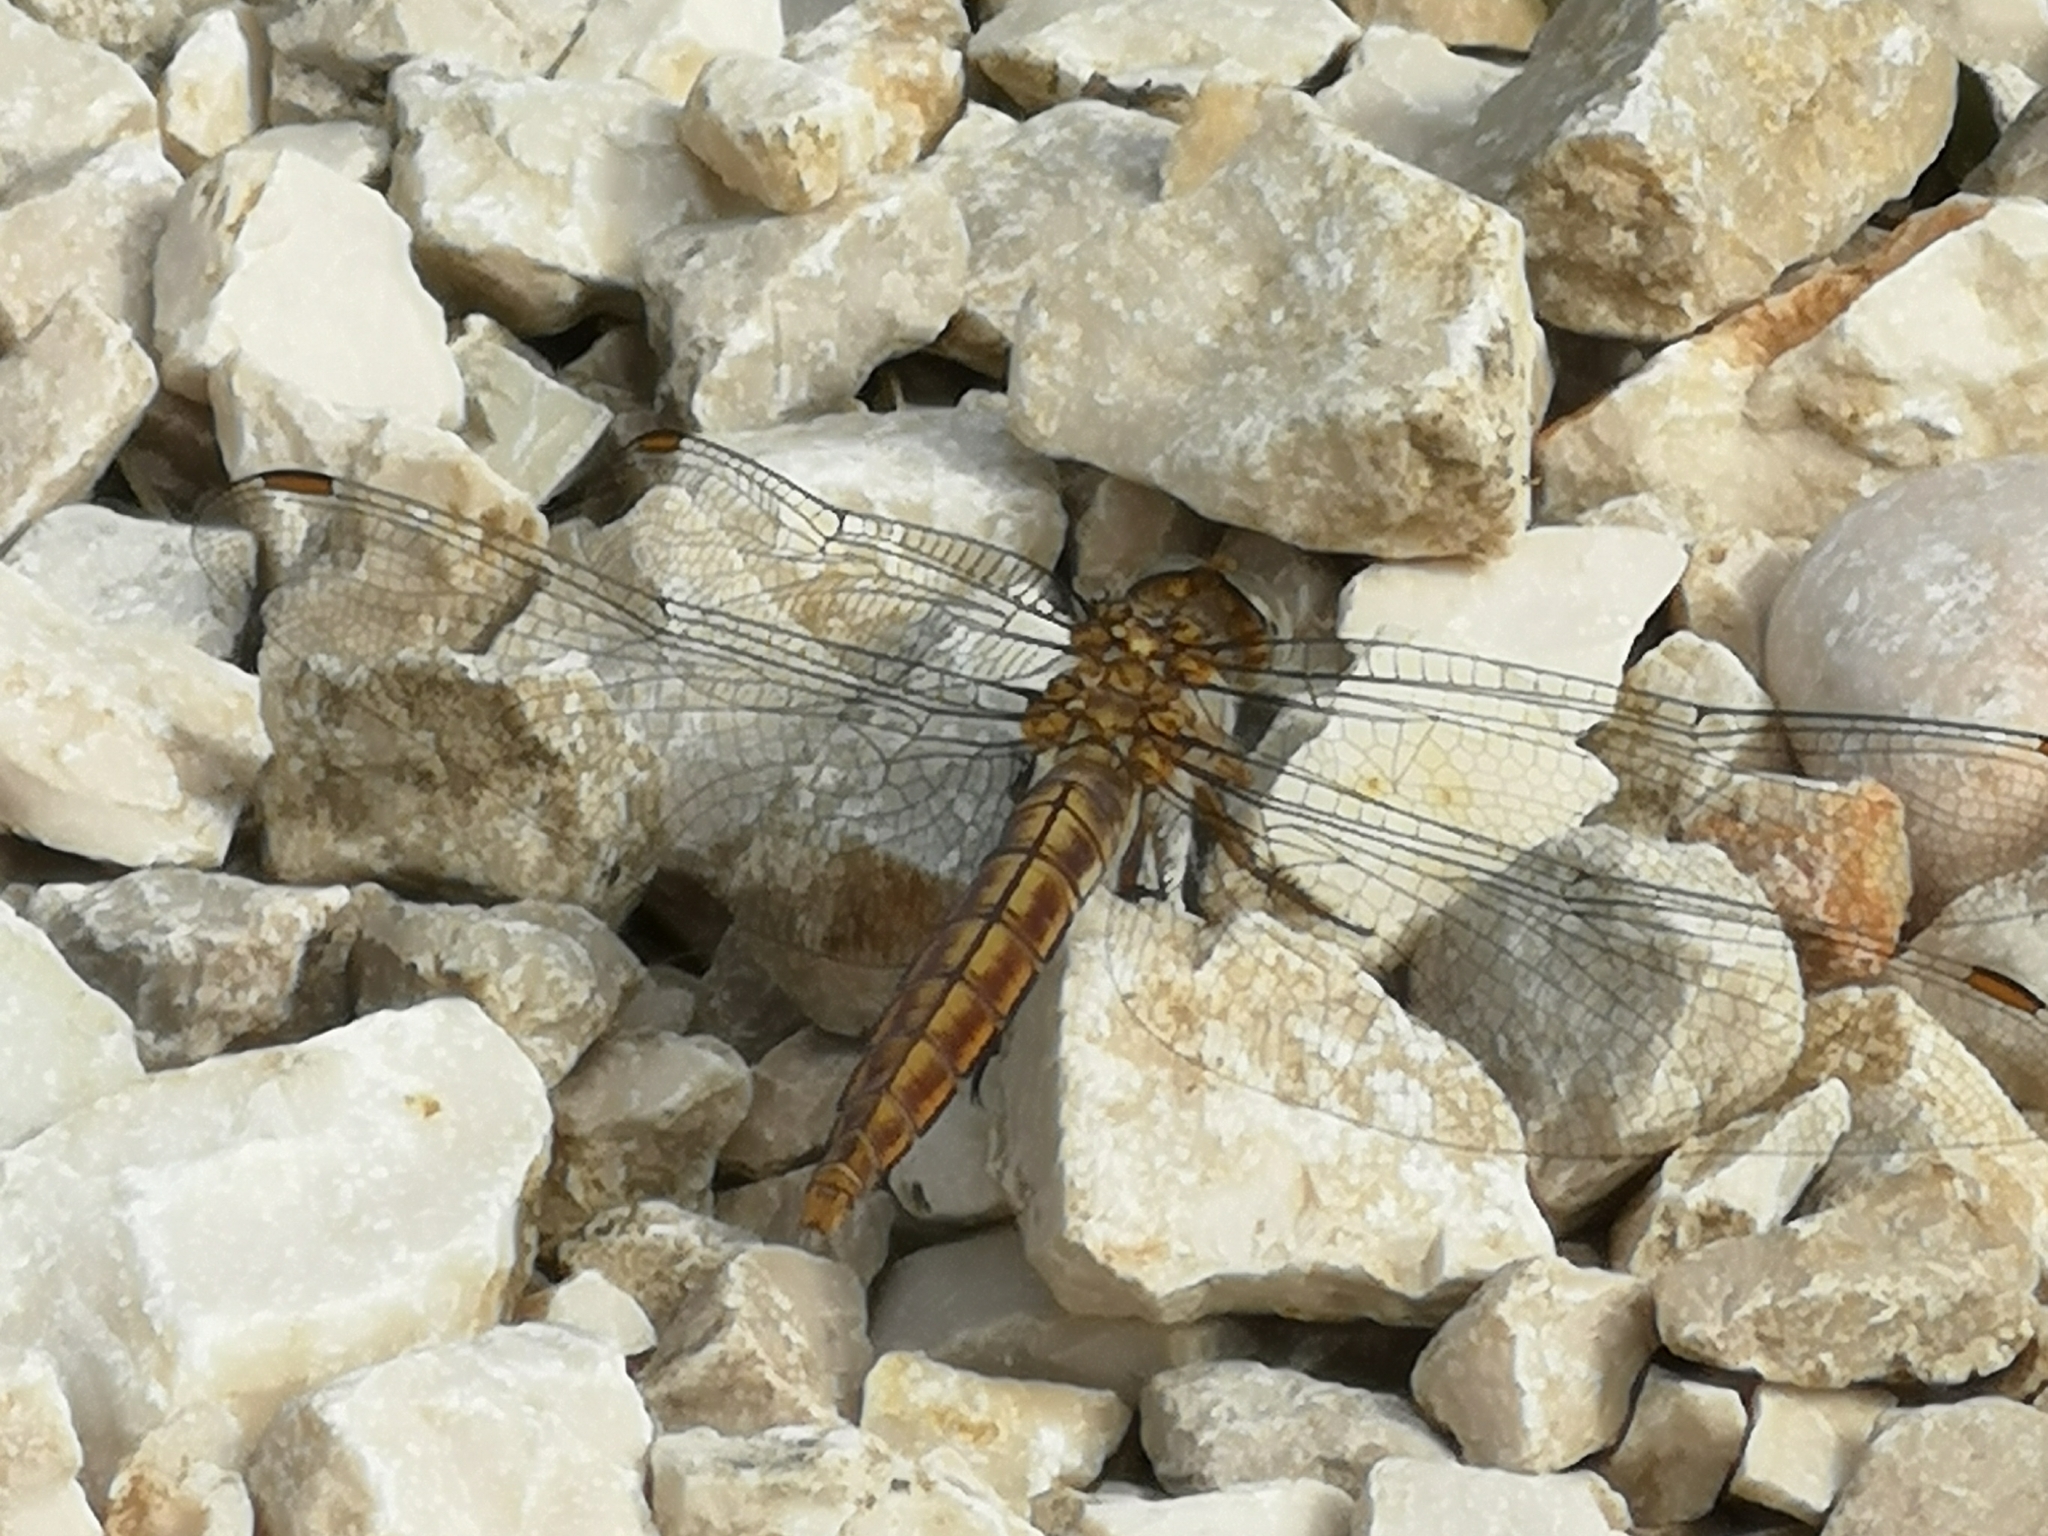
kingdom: Animalia
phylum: Arthropoda
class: Insecta
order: Odonata
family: Libellulidae
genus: Orthetrum
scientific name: Orthetrum brunneum
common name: Southern skimmer
